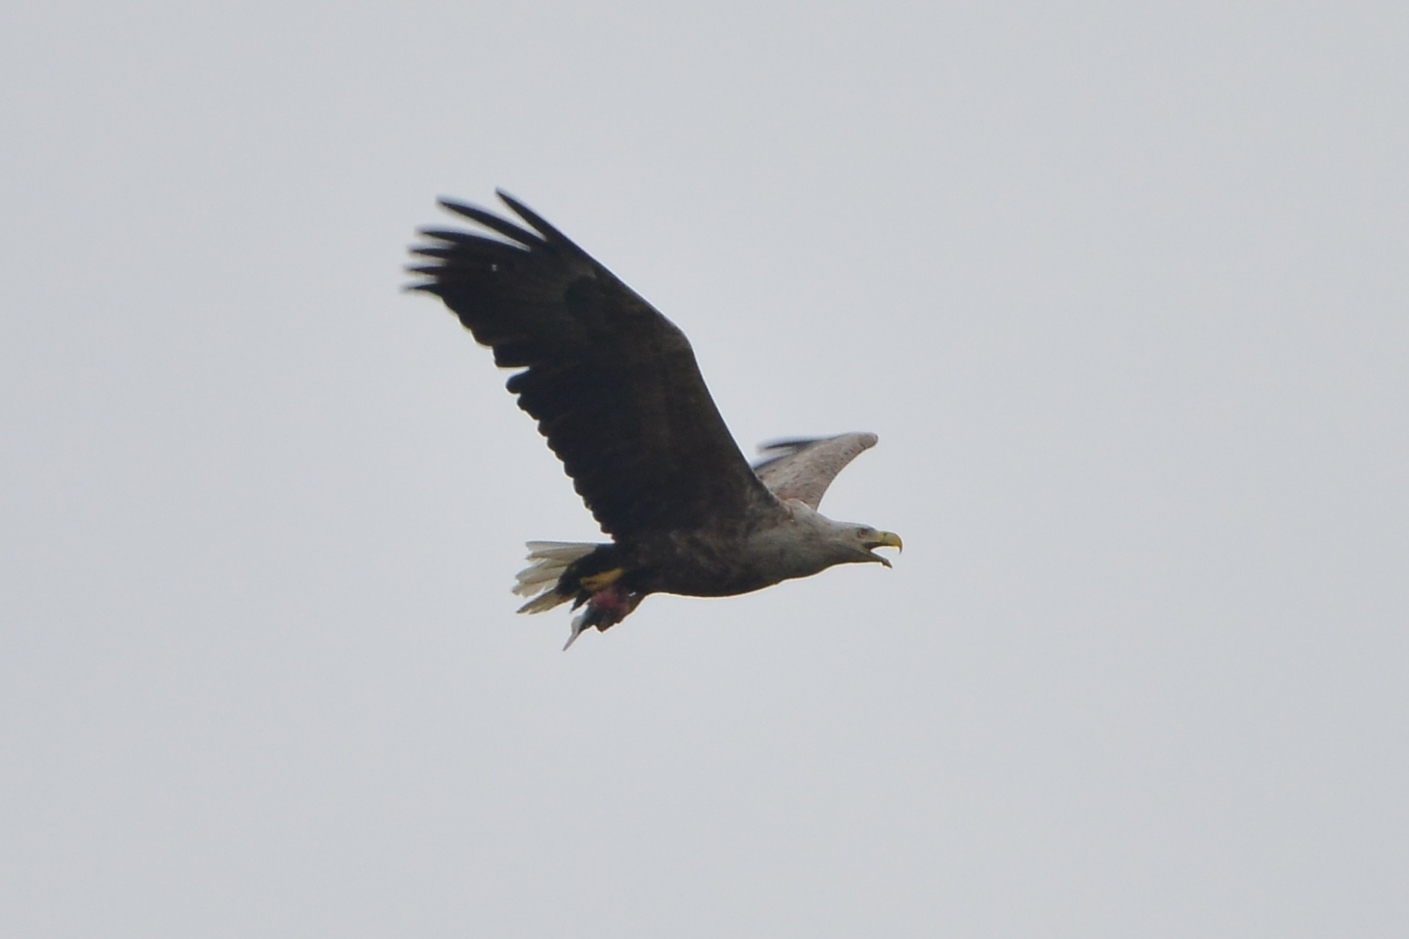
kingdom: Animalia
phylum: Chordata
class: Aves
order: Accipitriformes
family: Accipitridae
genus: Haliaeetus
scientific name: Haliaeetus albicilla
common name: White-tailed eagle
